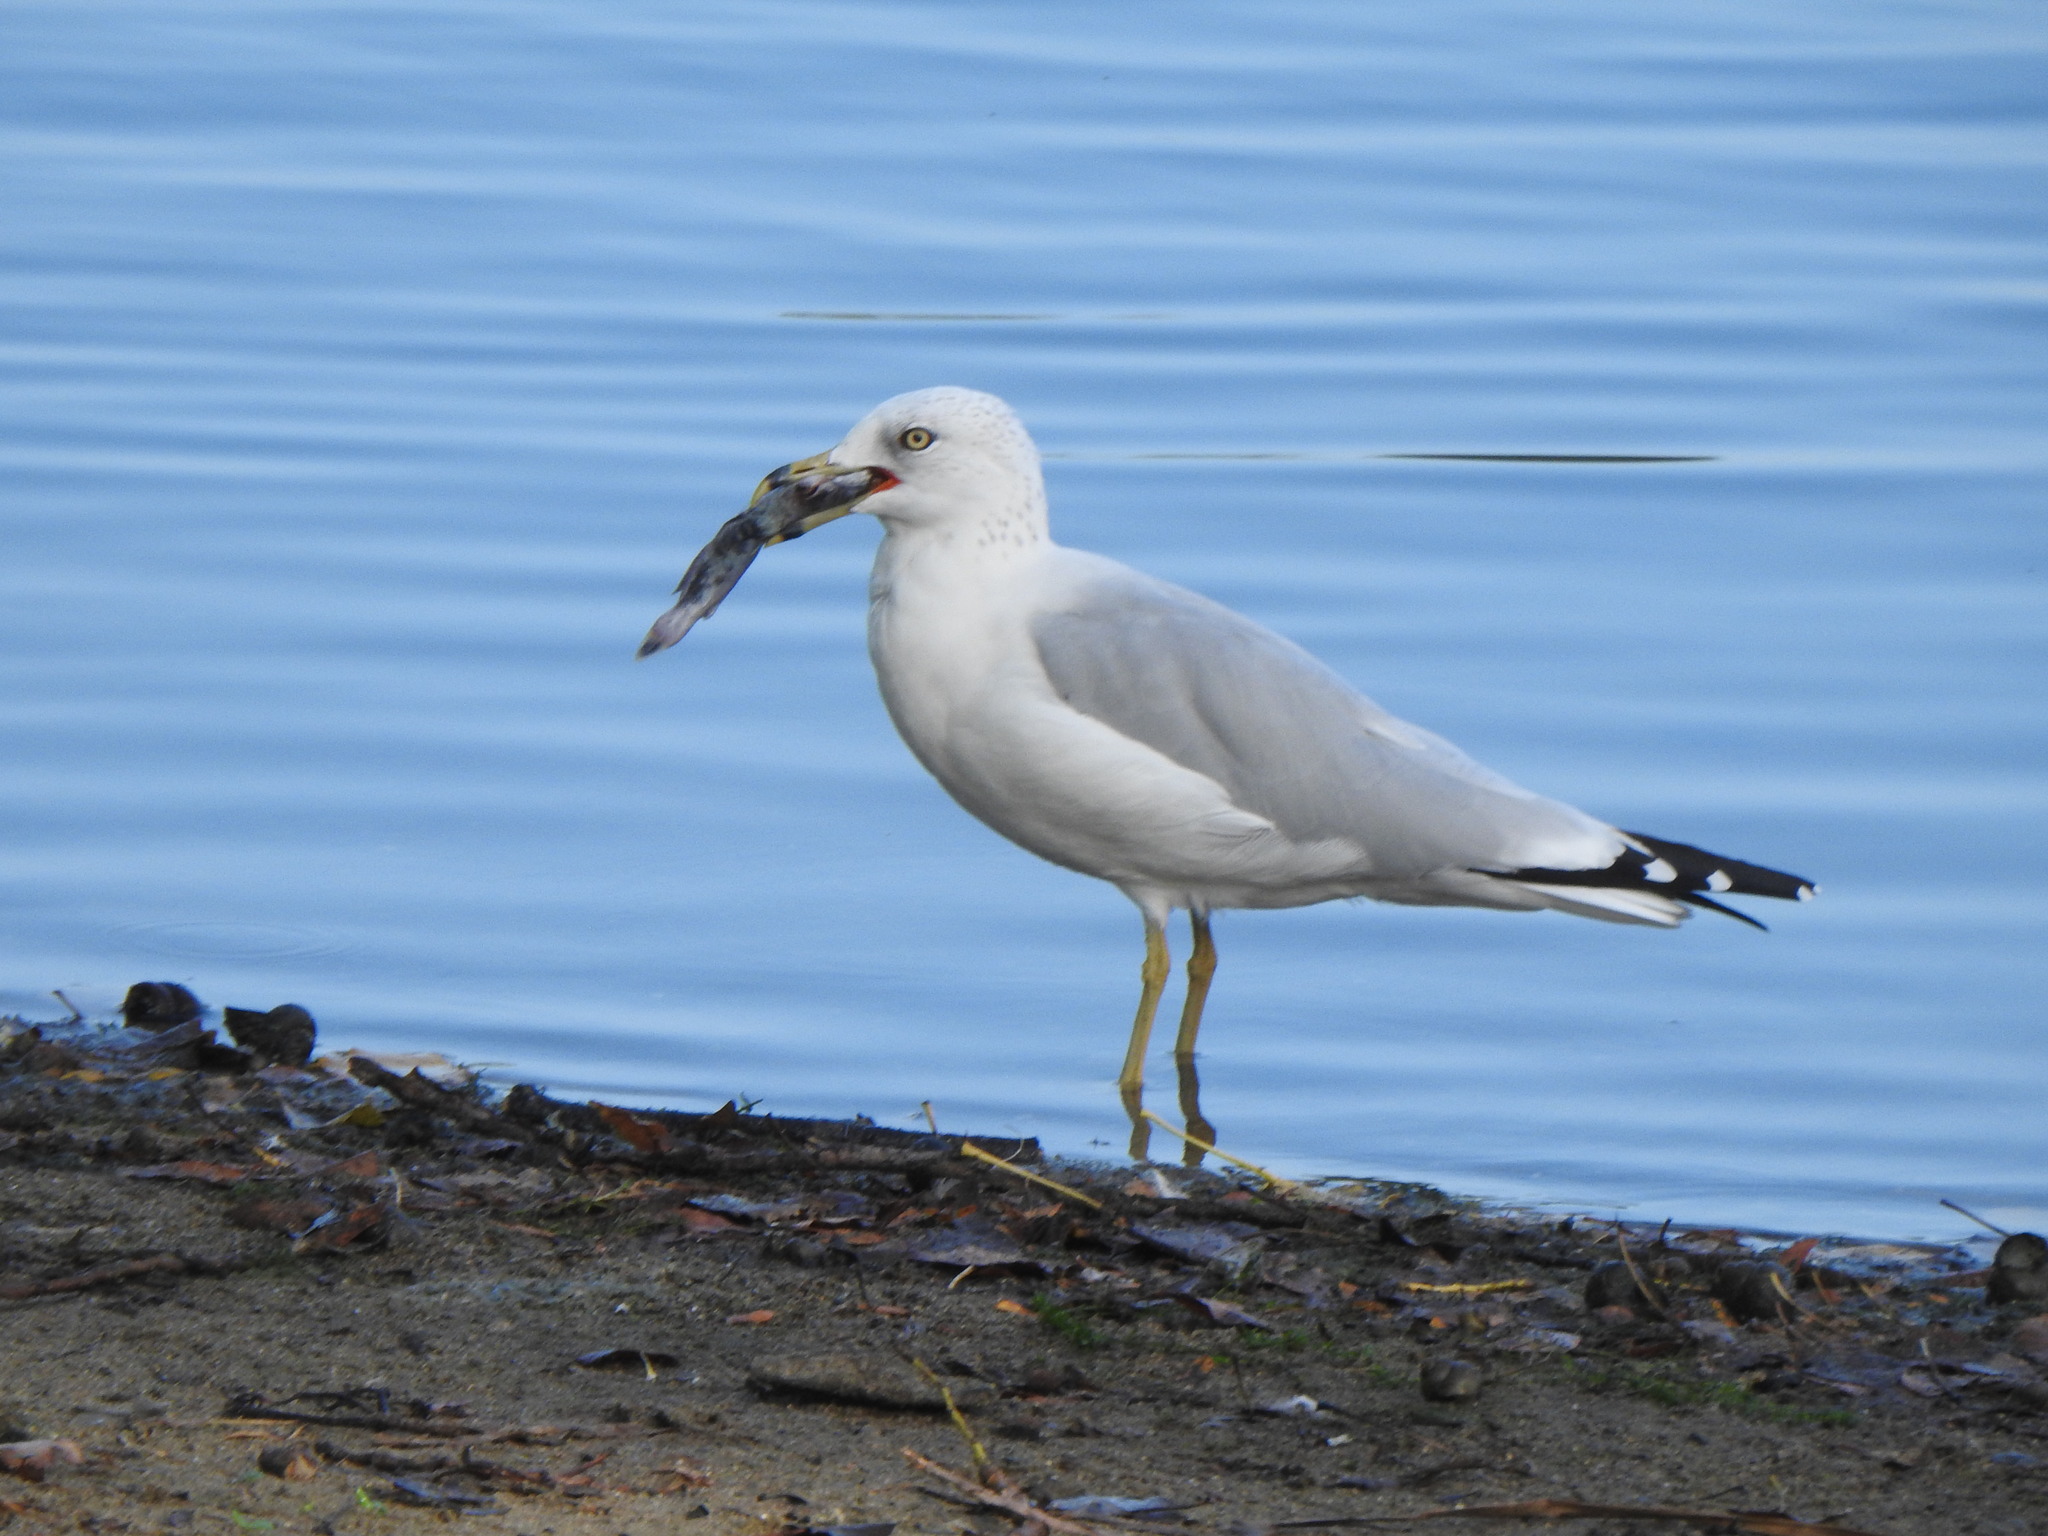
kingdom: Animalia
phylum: Chordata
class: Aves
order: Charadriiformes
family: Laridae
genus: Larus
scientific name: Larus delawarensis
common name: Ring-billed gull
